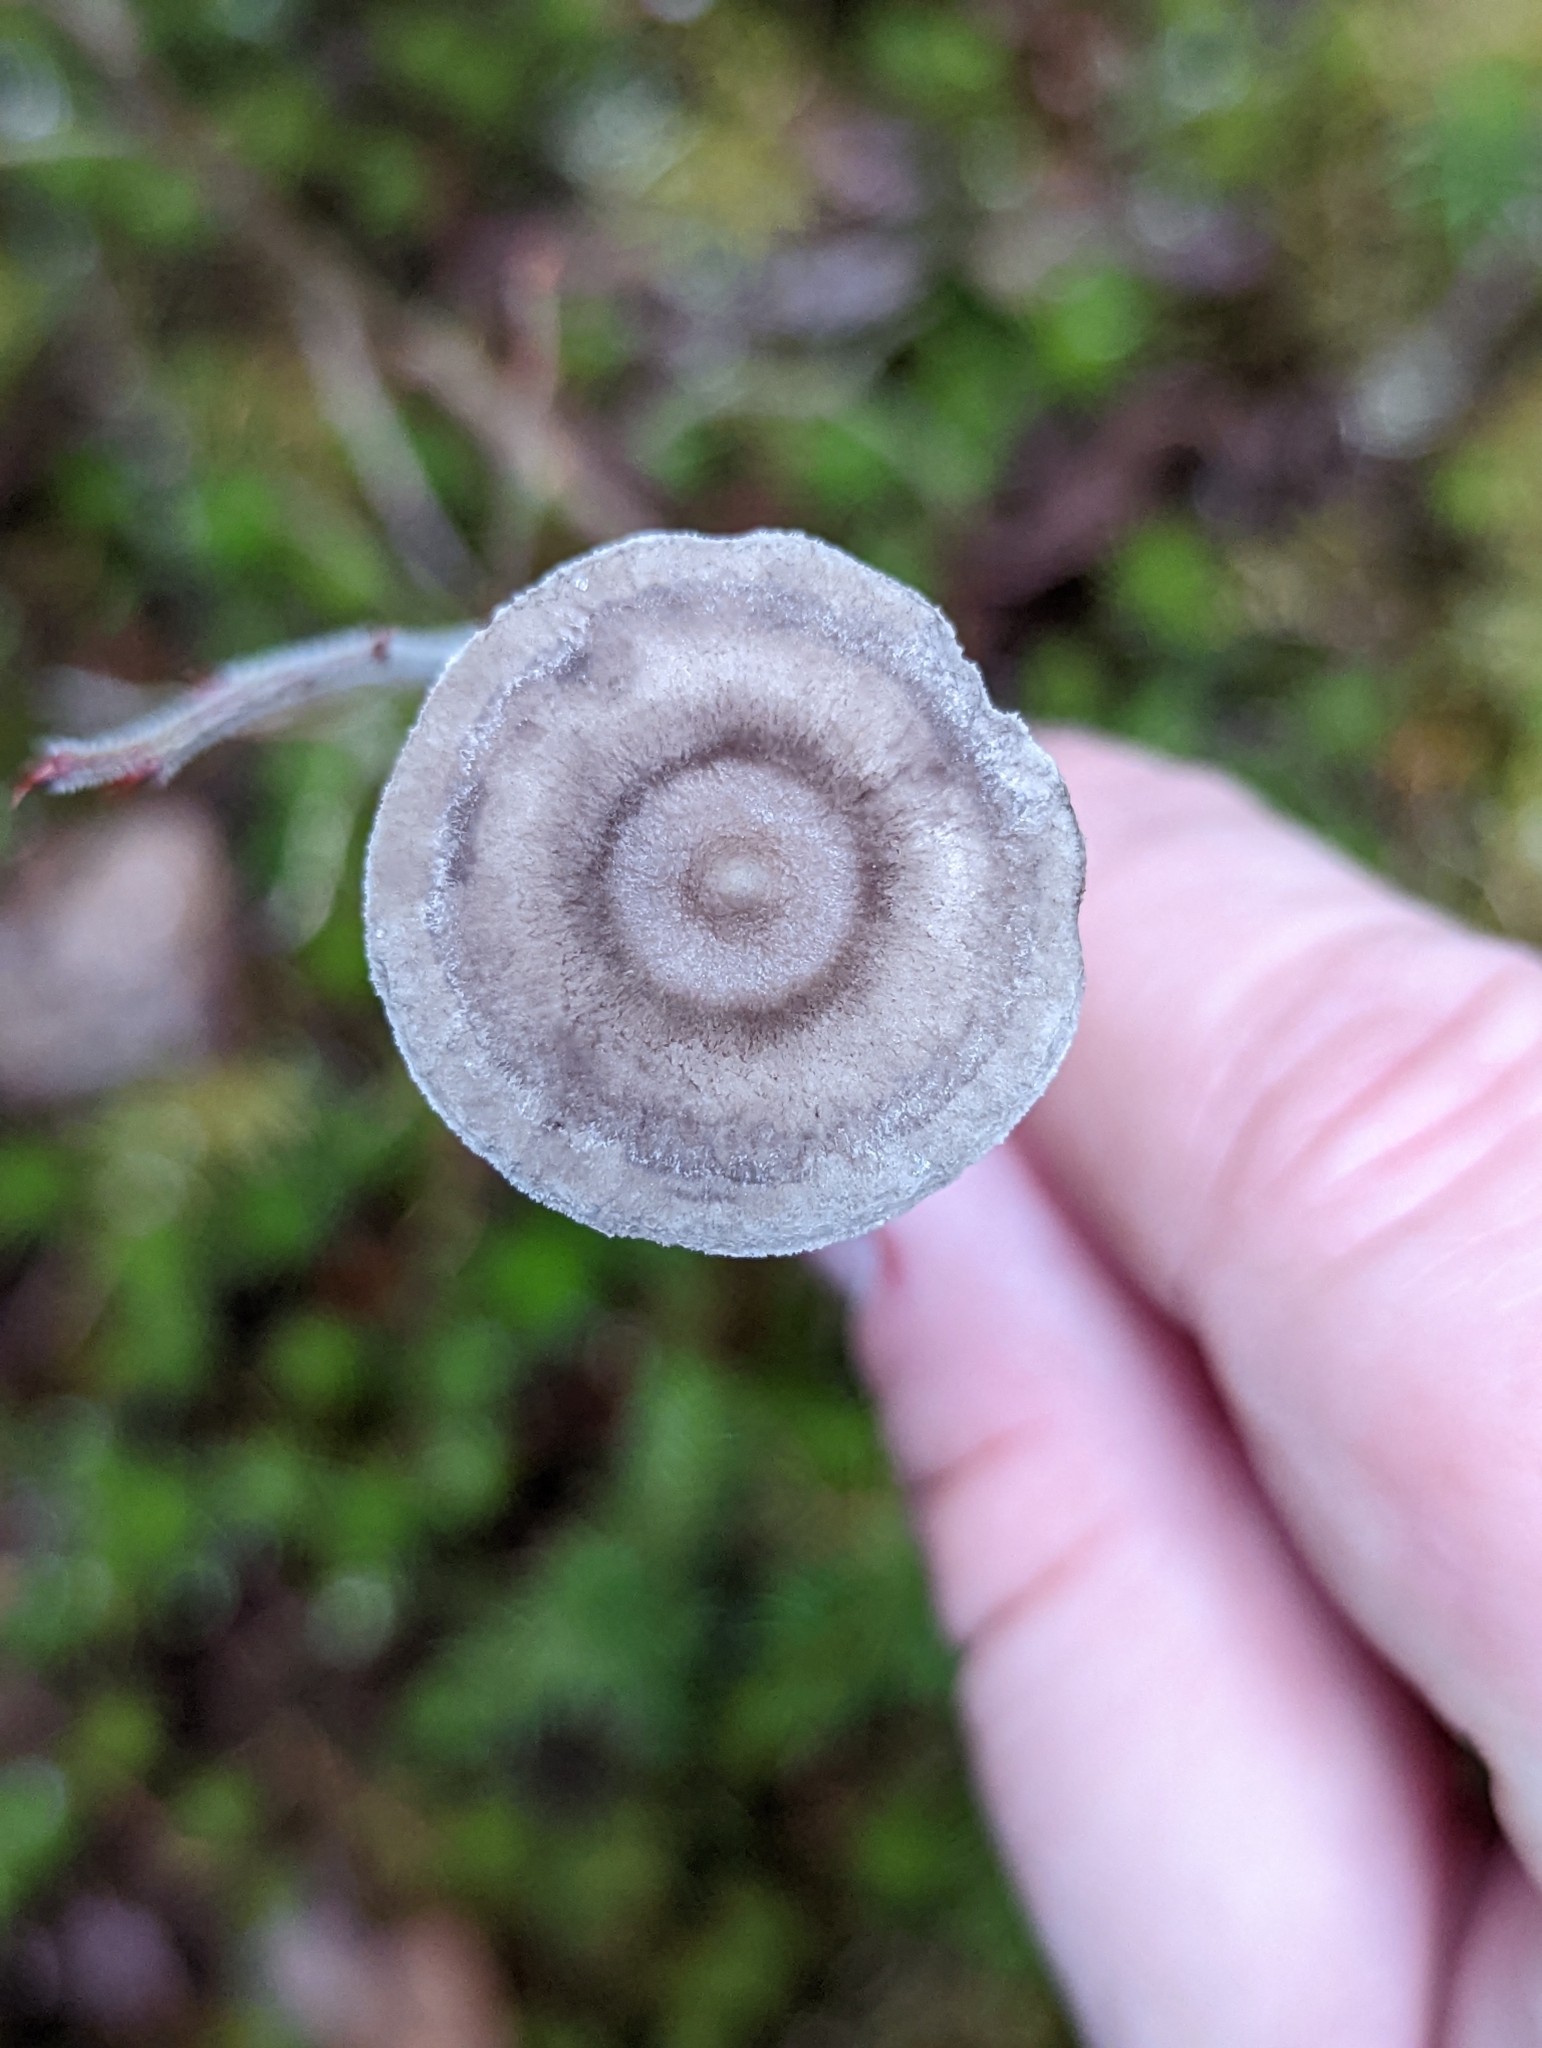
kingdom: Fungi
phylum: Basidiomycota
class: Agaricomycetes
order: Agaricales
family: Hygrophoraceae
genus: Cantharellula
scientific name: Cantharellula umbonata
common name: The humpback
